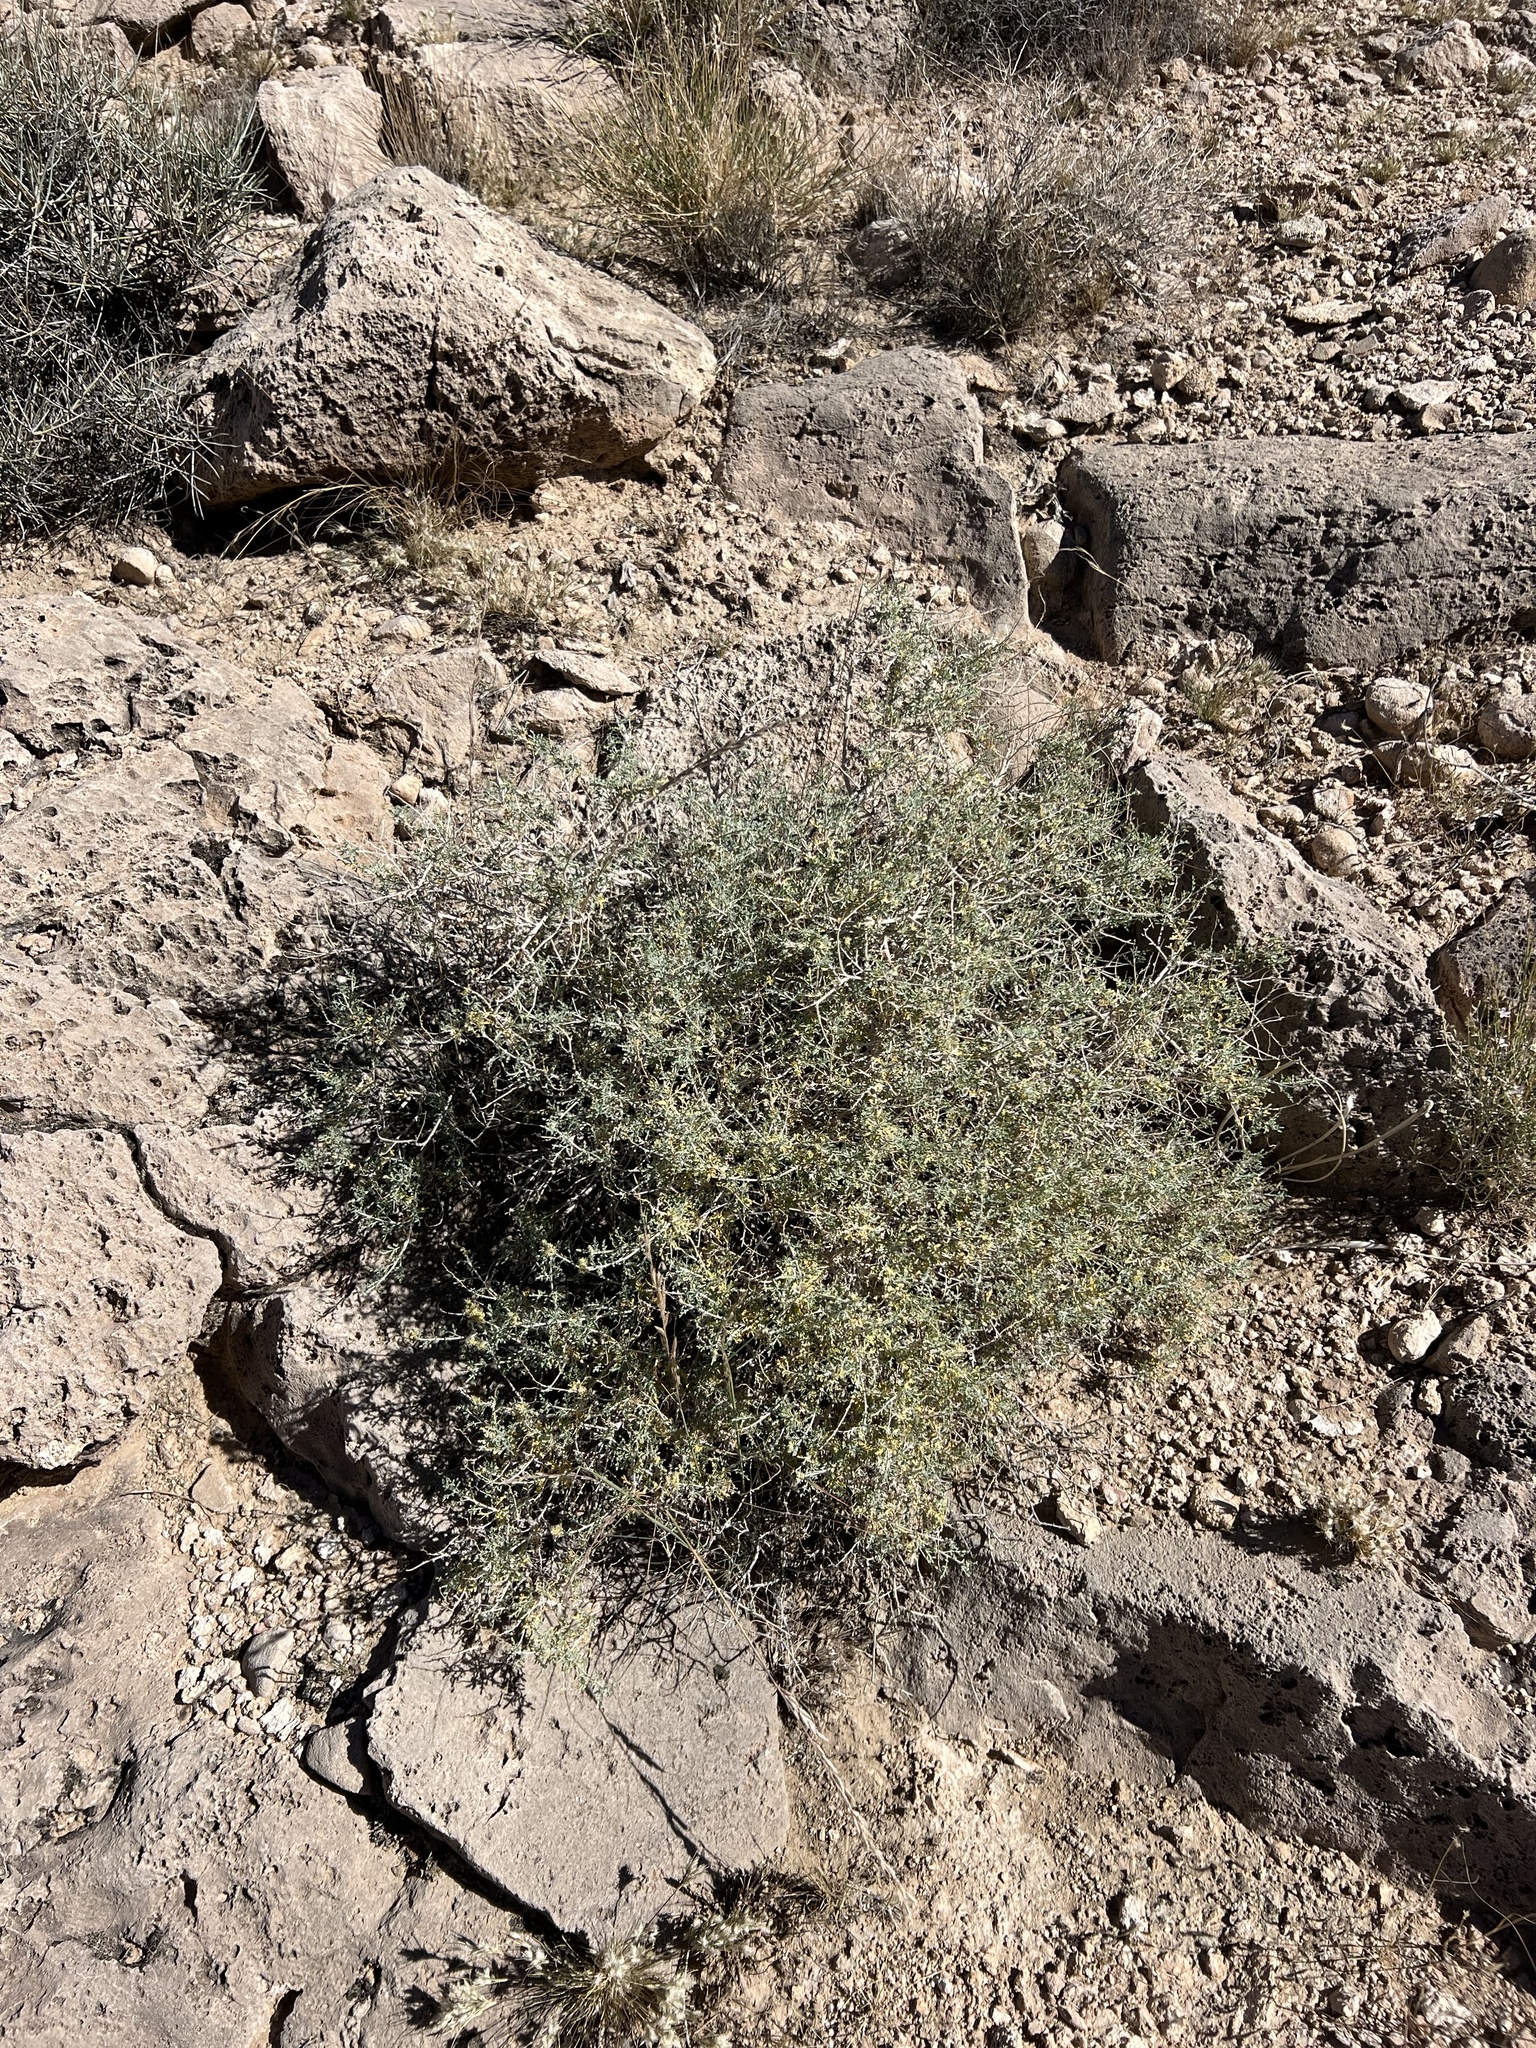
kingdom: Plantae
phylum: Tracheophyta
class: Magnoliopsida
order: Asterales
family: Asteraceae
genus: Ambrosia
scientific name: Ambrosia dumosa
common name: Bur-sage
